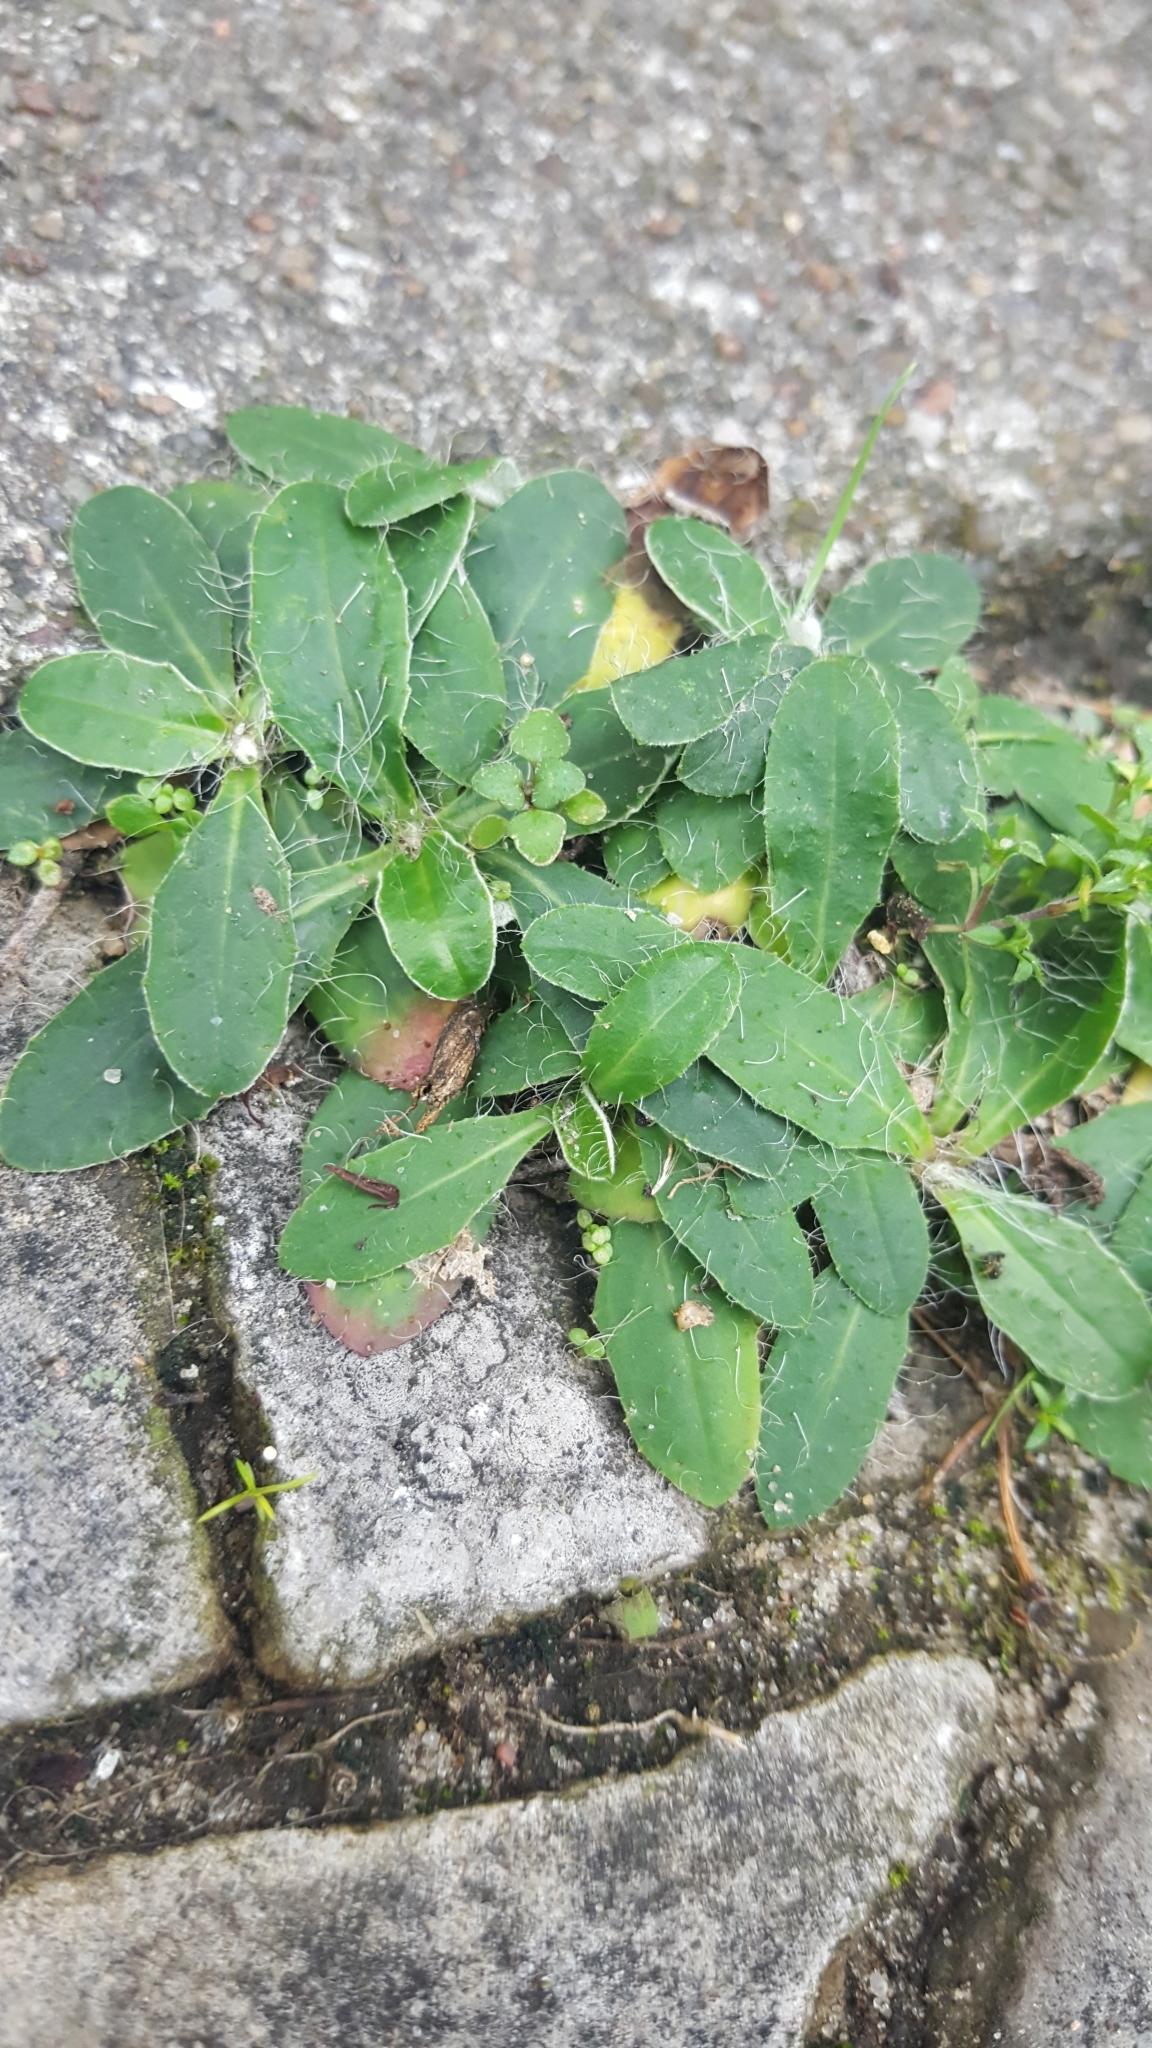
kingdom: Plantae
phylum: Tracheophyta
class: Magnoliopsida
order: Asterales
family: Asteraceae
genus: Pilosella
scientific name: Pilosella officinarum
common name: Mouse-ear hawkweed
